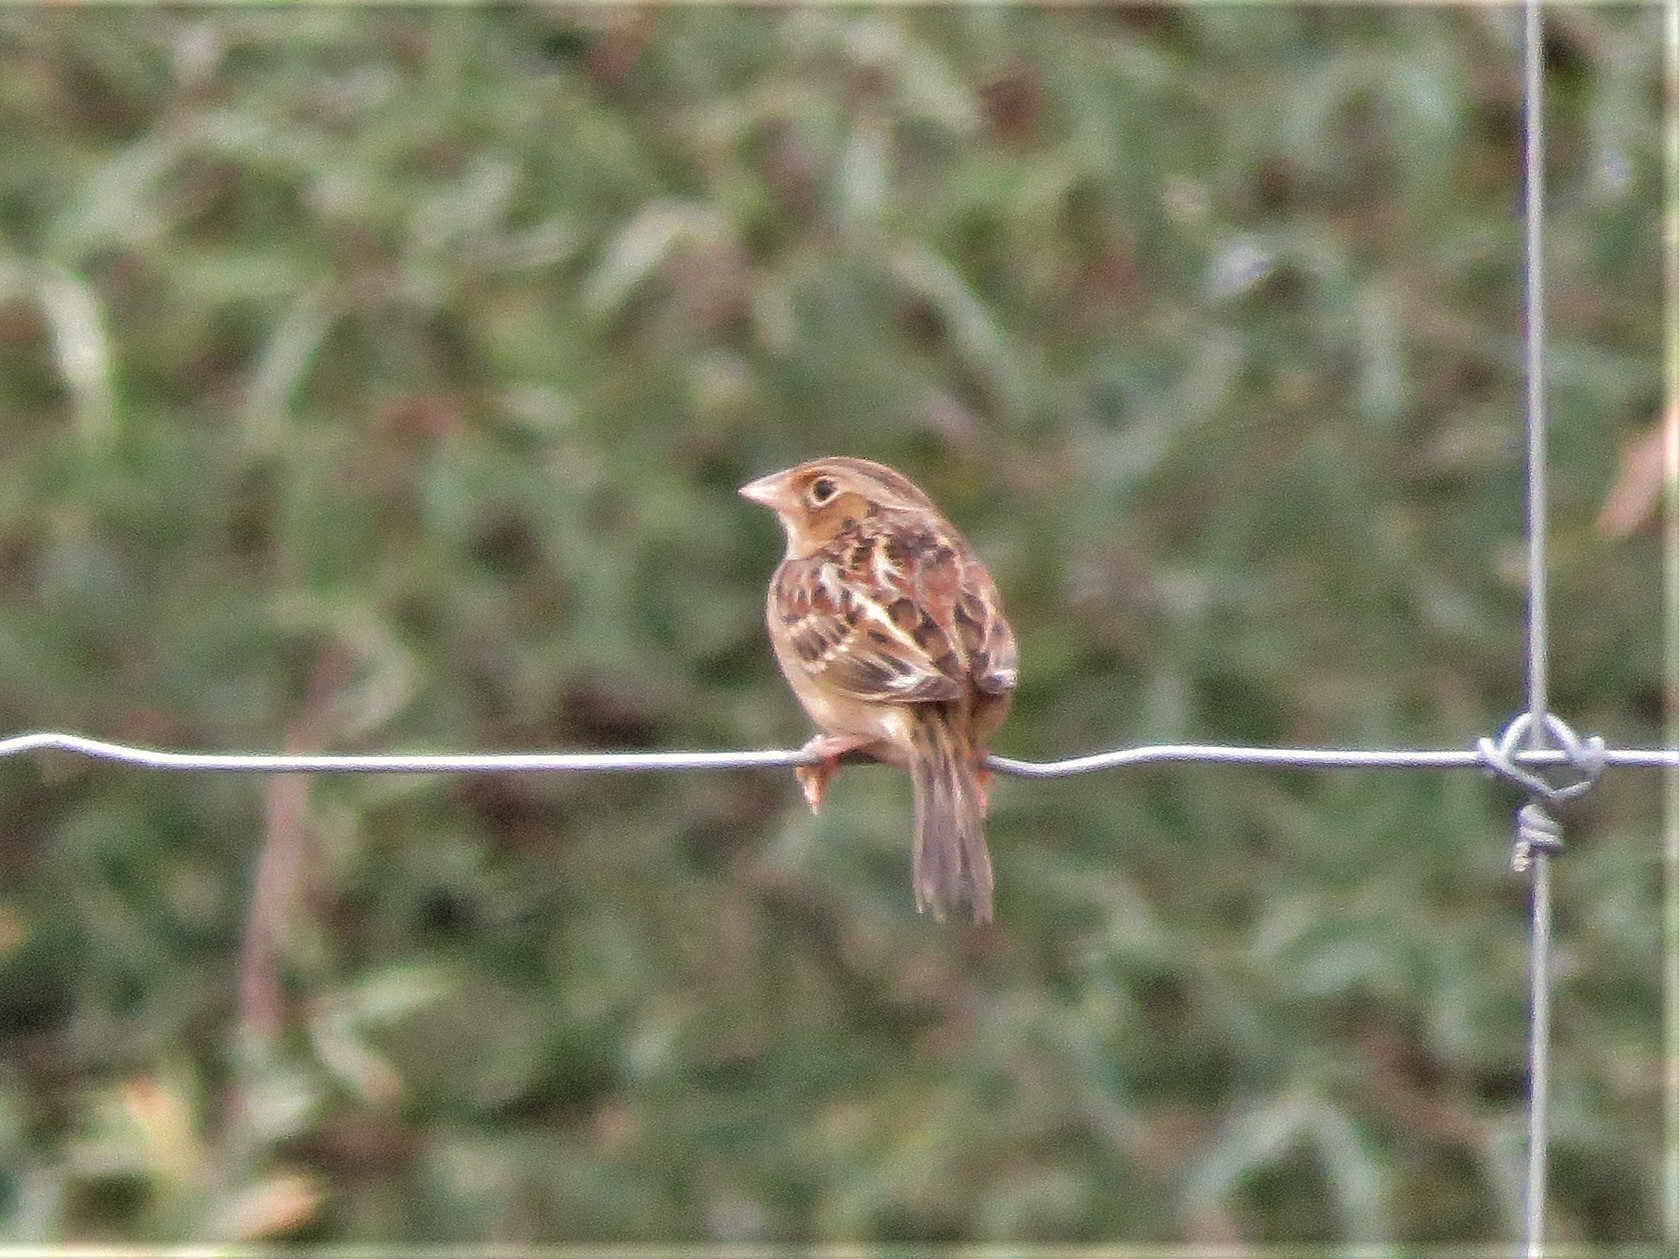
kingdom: Animalia
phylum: Chordata
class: Aves
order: Passeriformes
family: Passerellidae
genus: Ammodramus
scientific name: Ammodramus savannarum
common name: Grasshopper sparrow
